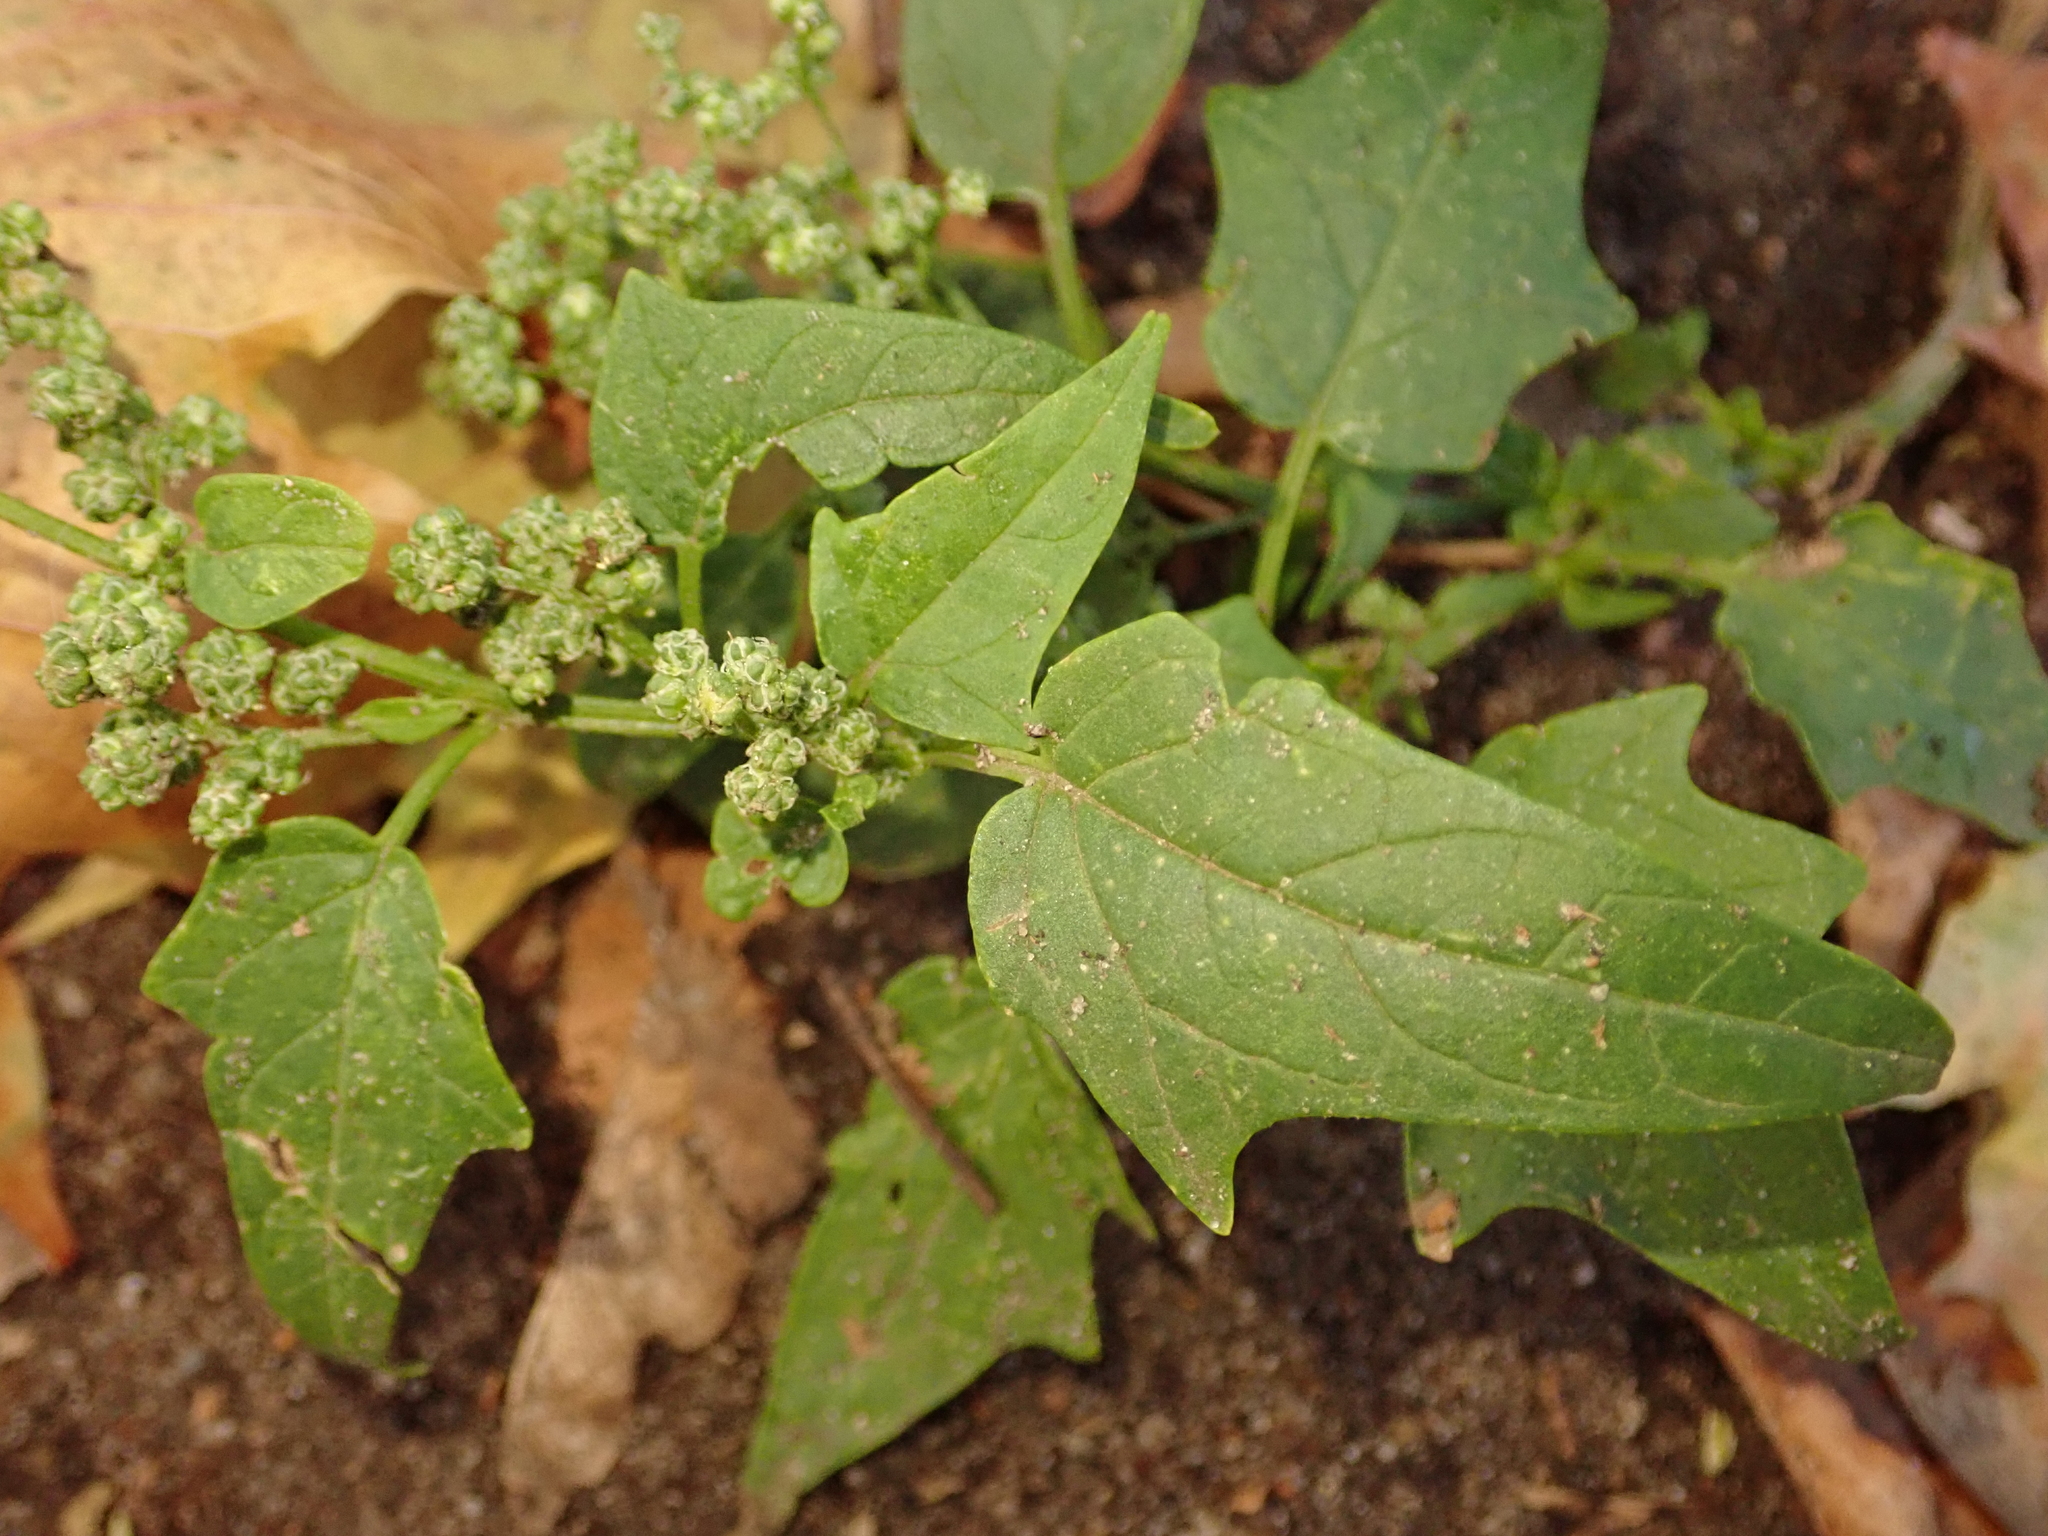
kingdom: Plantae
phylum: Tracheophyta
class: Magnoliopsida
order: Caryophyllales
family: Amaranthaceae
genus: Chenopodiastrum
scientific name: Chenopodiastrum hybridum
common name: Mapleleaf goosefoot
